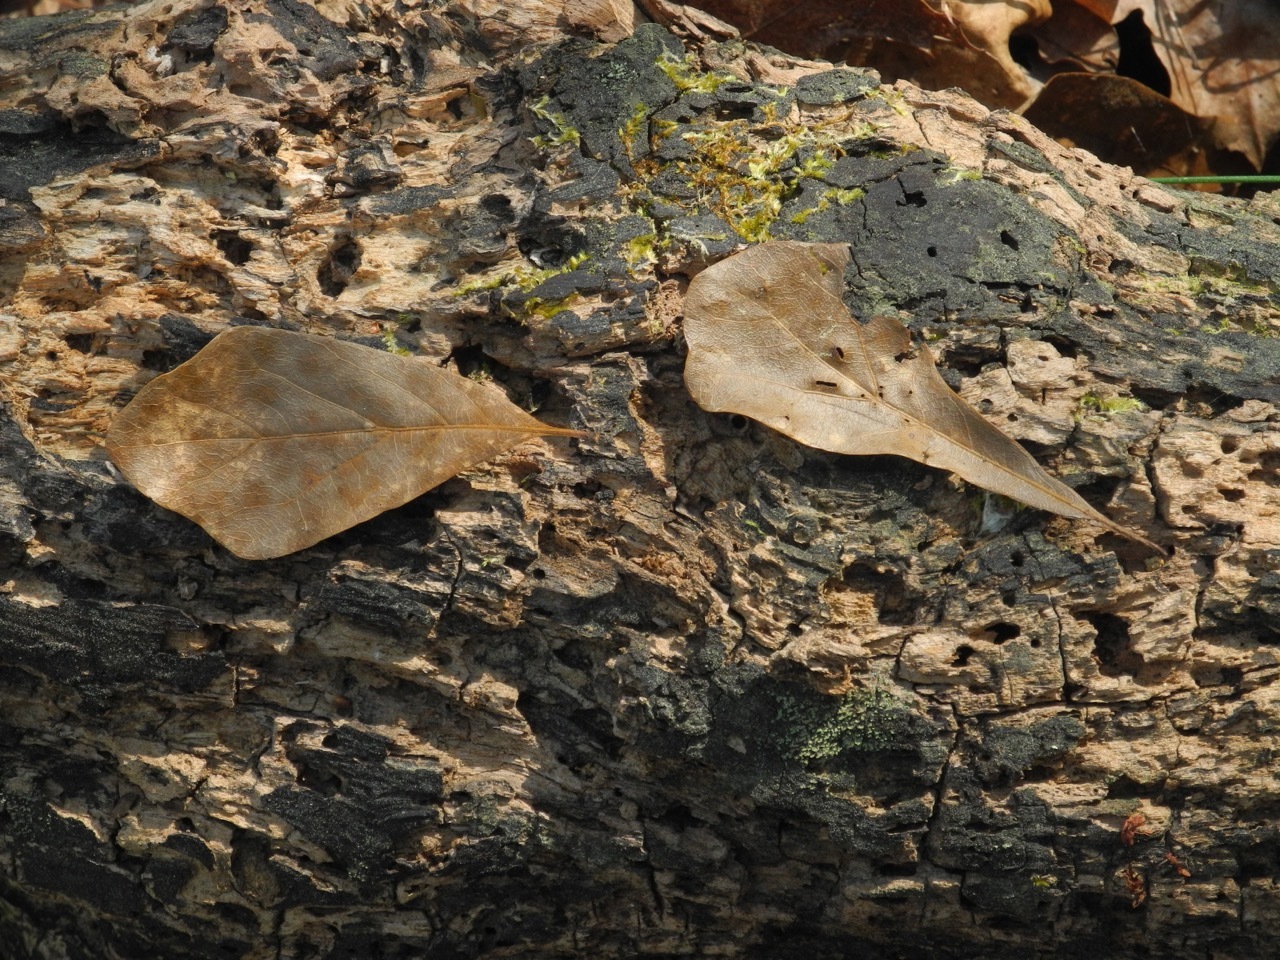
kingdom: Plantae
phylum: Tracheophyta
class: Magnoliopsida
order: Fagales
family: Fagaceae
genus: Quercus
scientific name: Quercus nigra
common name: Water oak
